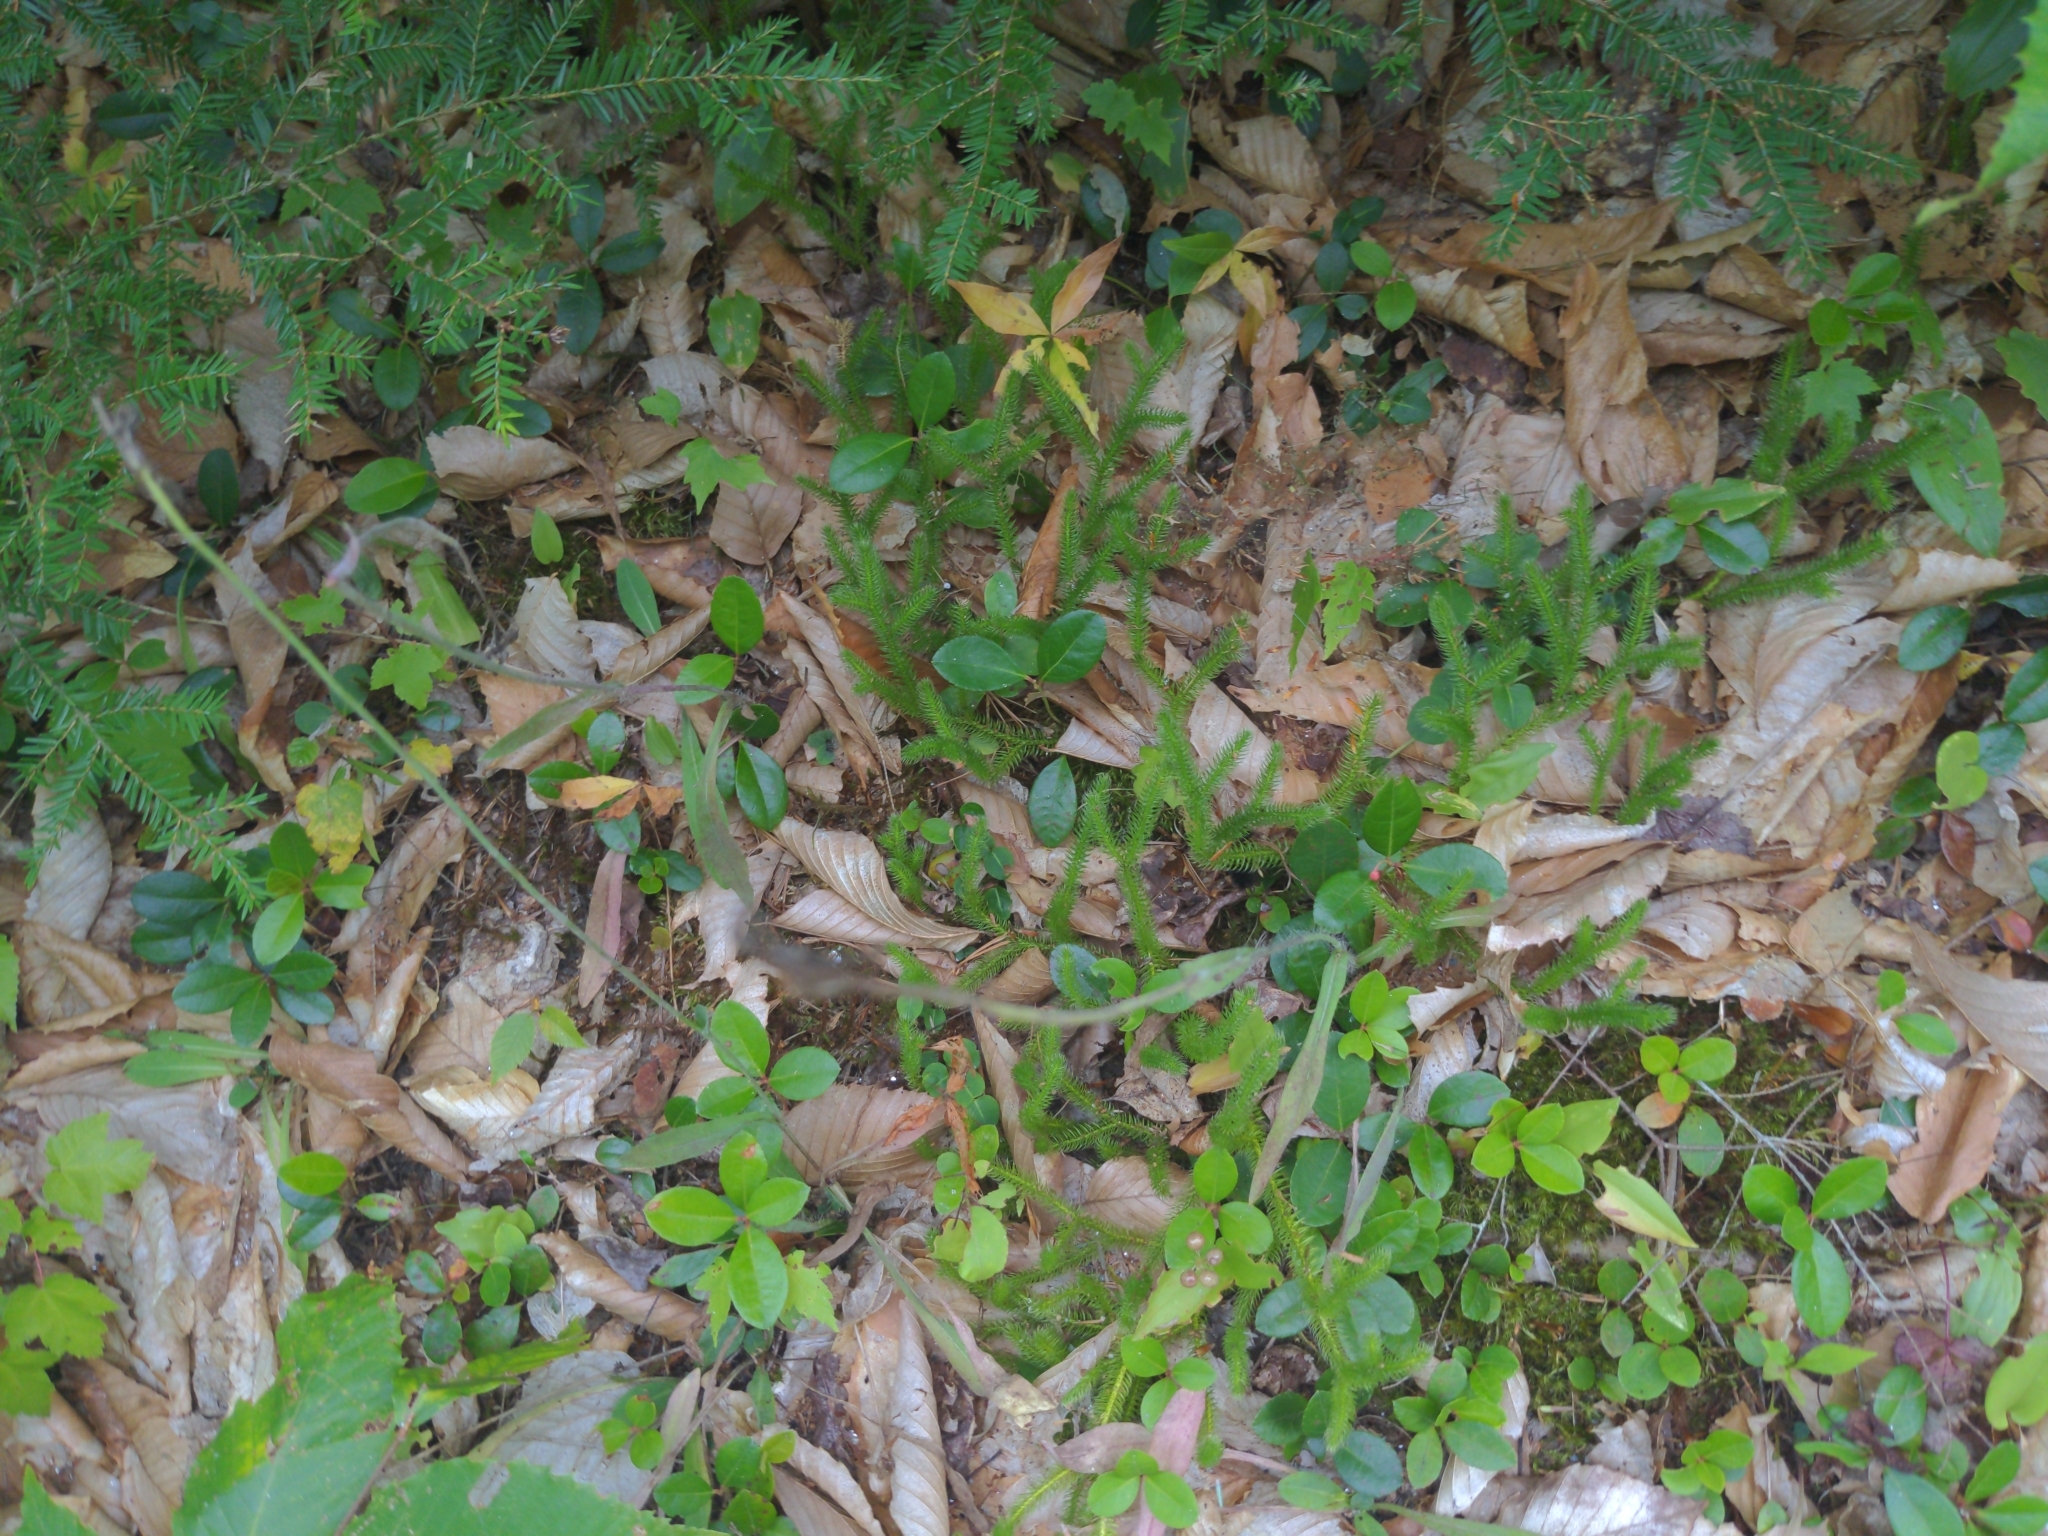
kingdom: Plantae
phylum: Tracheophyta
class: Lycopodiopsida
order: Lycopodiales
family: Lycopodiaceae
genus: Lycopodium
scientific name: Lycopodium clavatum
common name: Stag's-horn clubmoss
